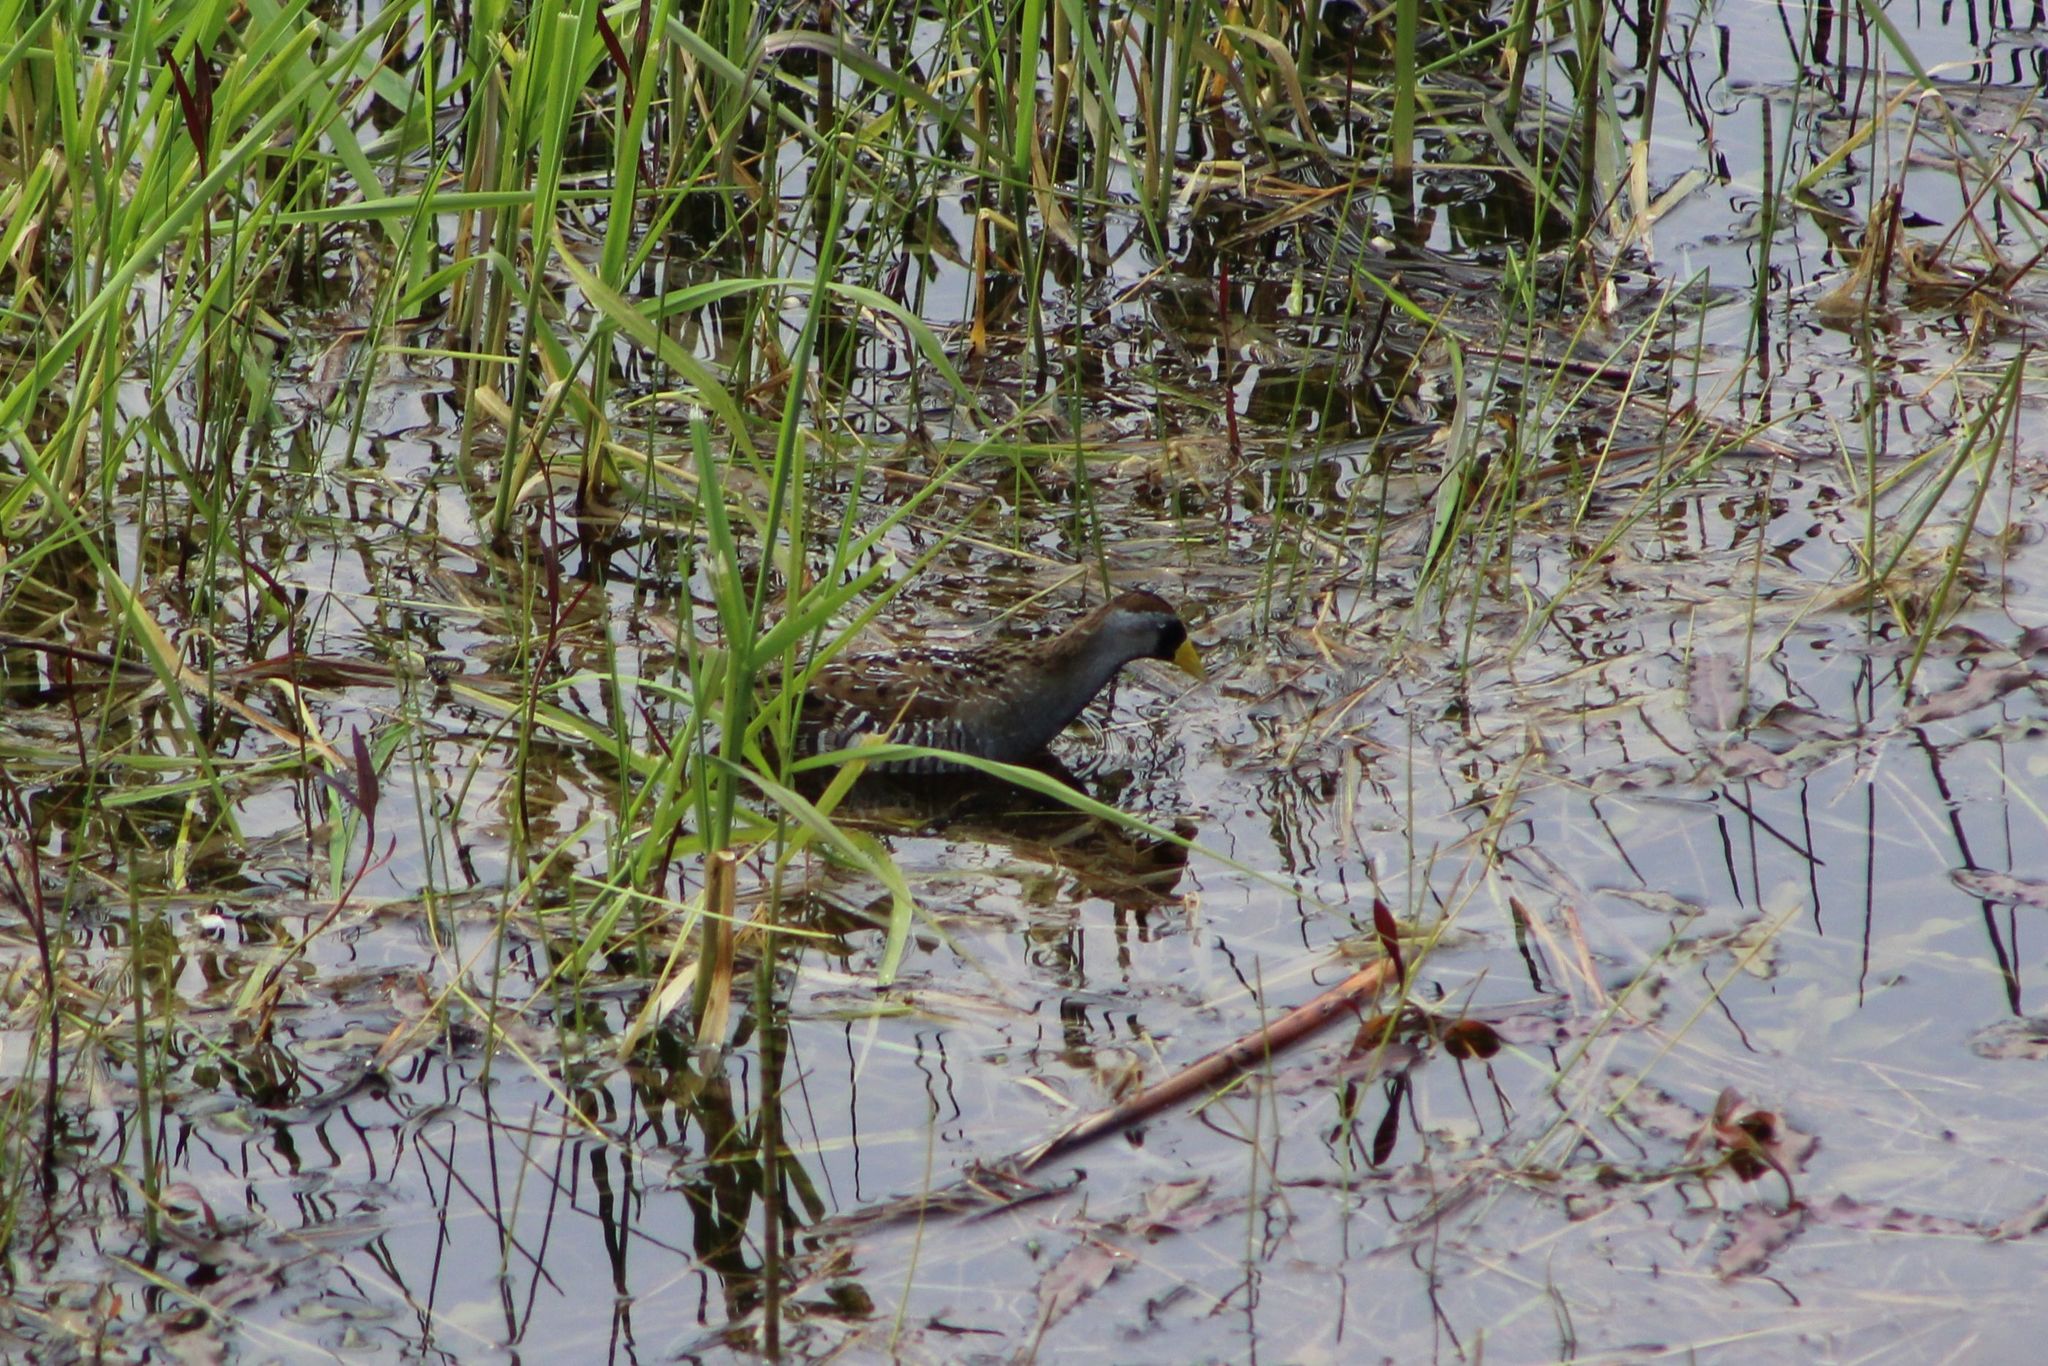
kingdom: Animalia
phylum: Chordata
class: Aves
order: Gruiformes
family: Rallidae
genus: Porzana
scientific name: Porzana carolina
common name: Sora
